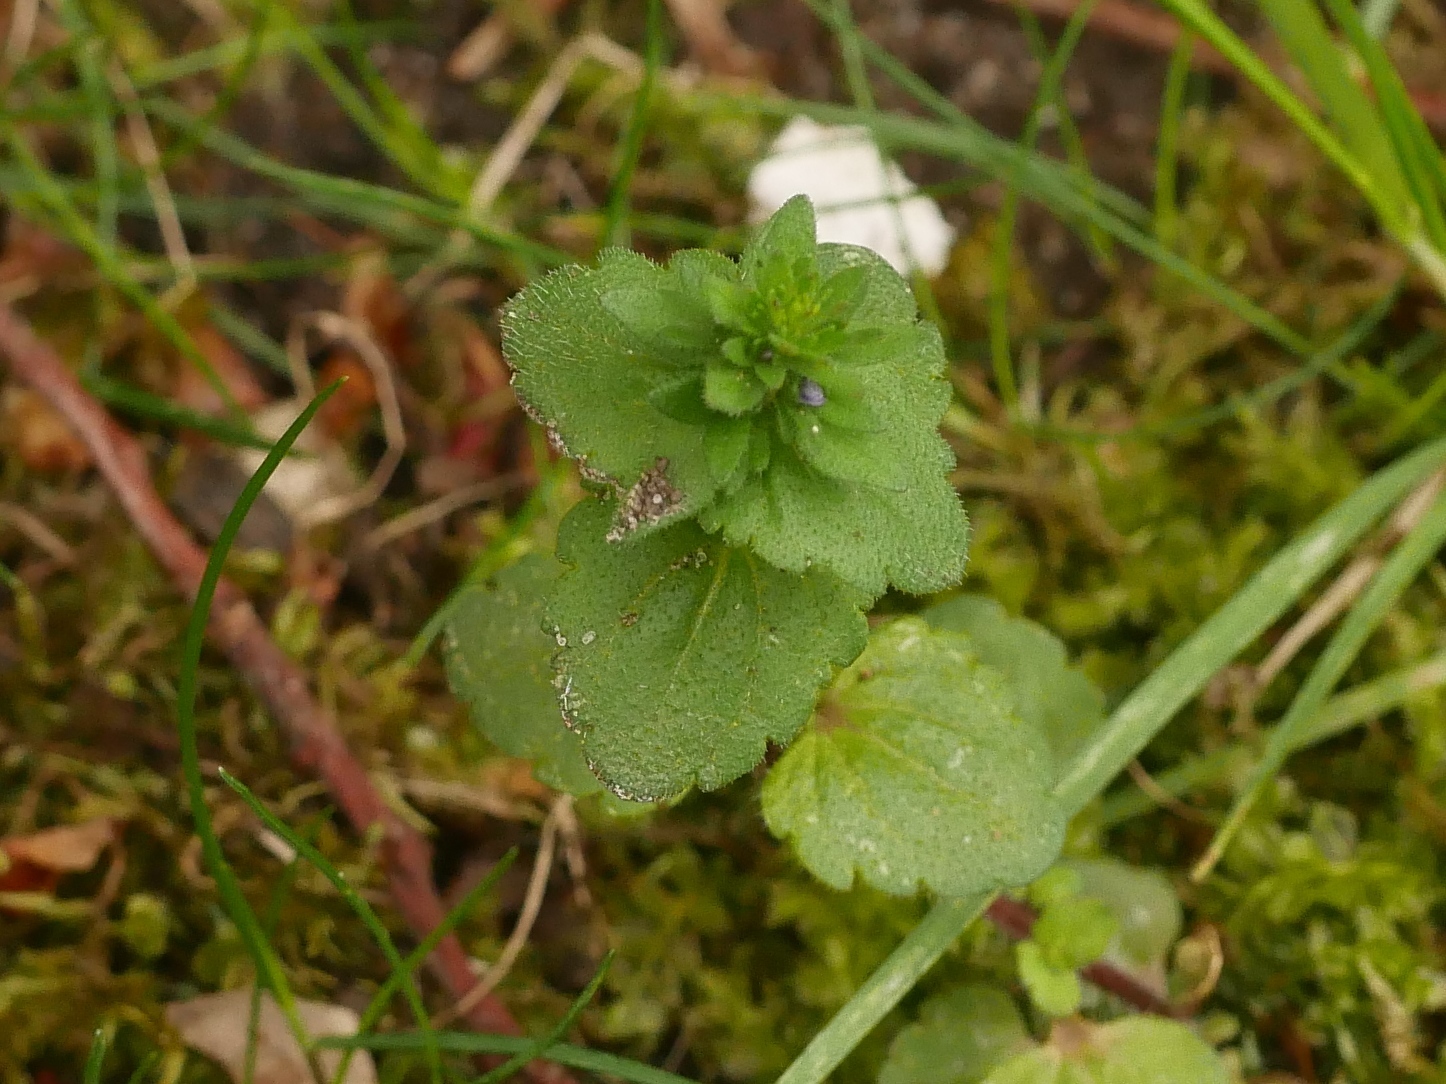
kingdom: Plantae
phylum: Tracheophyta
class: Magnoliopsida
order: Lamiales
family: Plantaginaceae
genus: Veronica
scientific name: Veronica arvensis
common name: Corn speedwell
